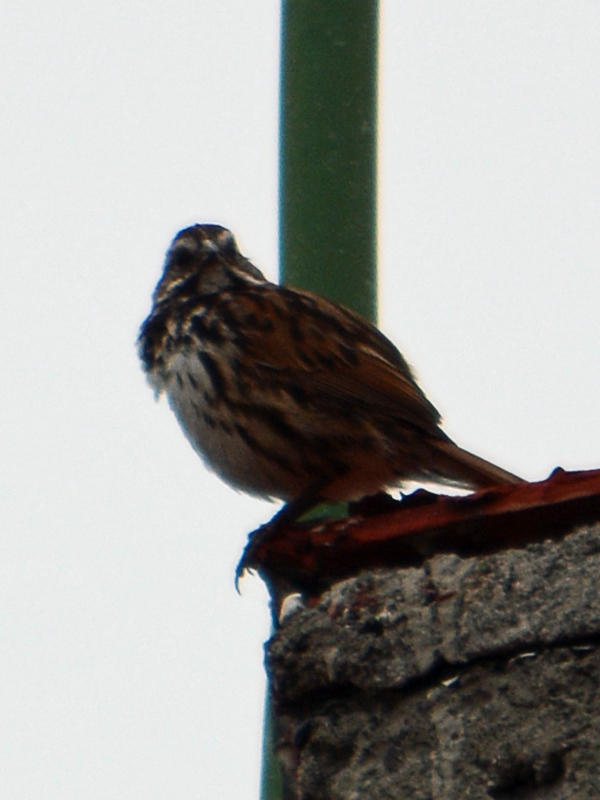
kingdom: Animalia
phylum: Chordata
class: Aves
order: Passeriformes
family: Passerellidae
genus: Melospiza
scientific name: Melospiza melodia
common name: Song sparrow
